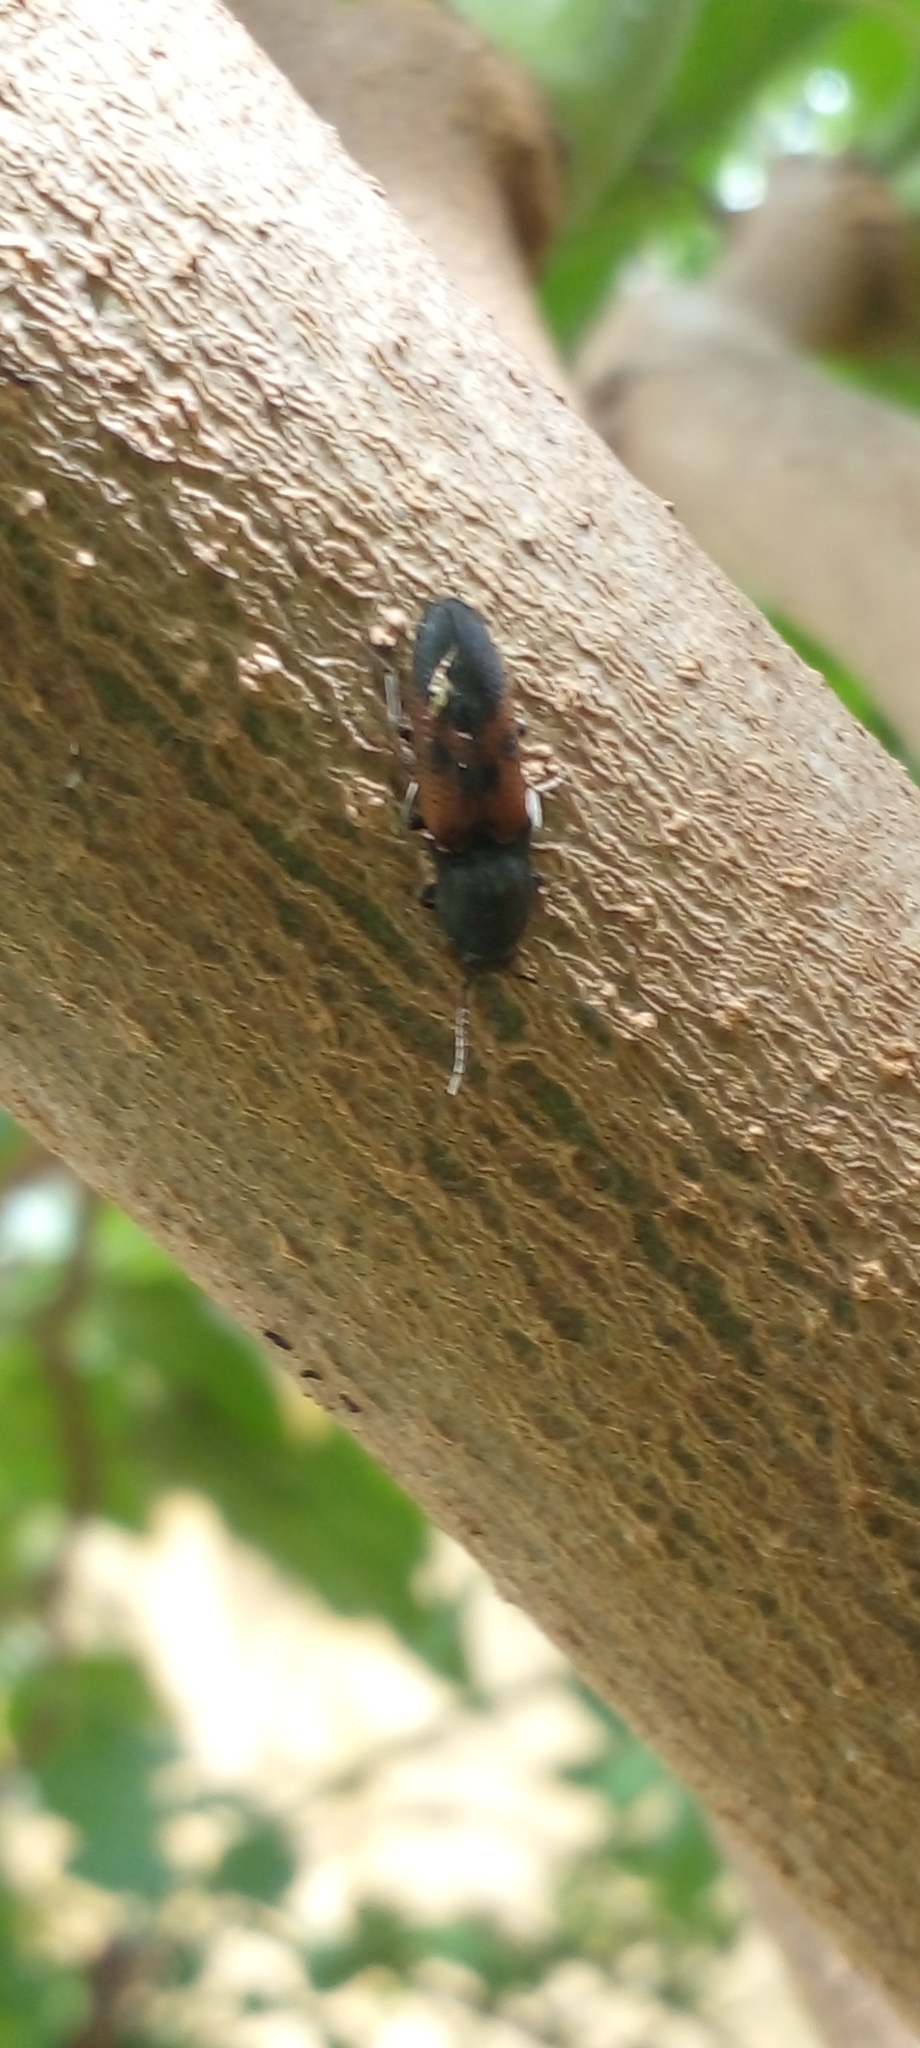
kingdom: Animalia
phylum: Arthropoda
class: Insecta
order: Coleoptera
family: Elateridae
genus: Monocrepidius
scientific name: Monocrepidius
